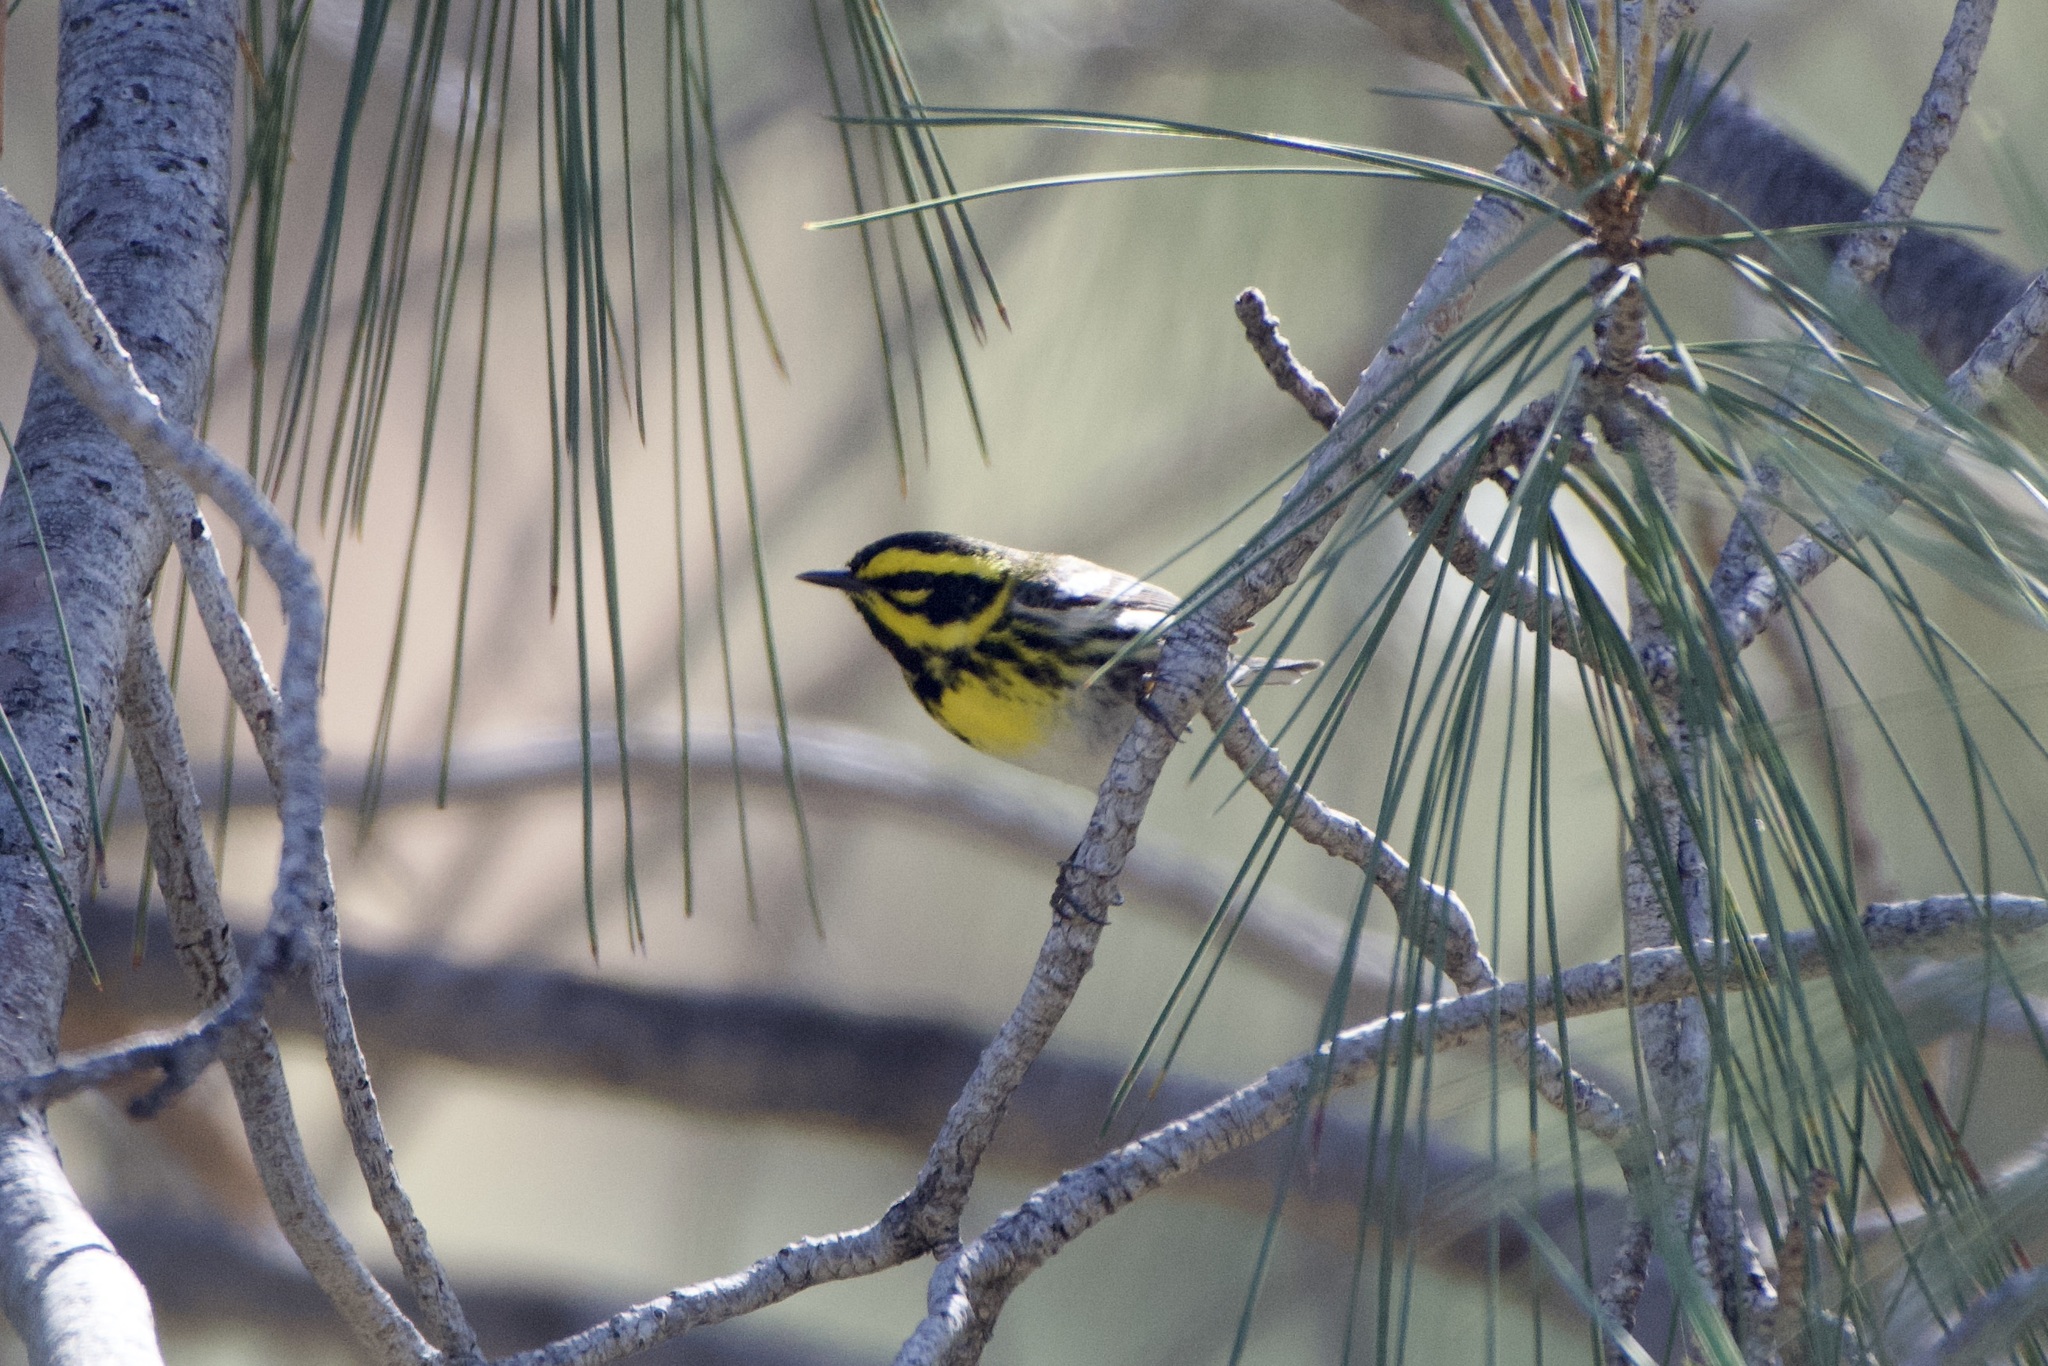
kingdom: Animalia
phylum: Chordata
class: Aves
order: Passeriformes
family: Parulidae
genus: Setophaga
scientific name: Setophaga townsendi
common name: Townsend's warbler
